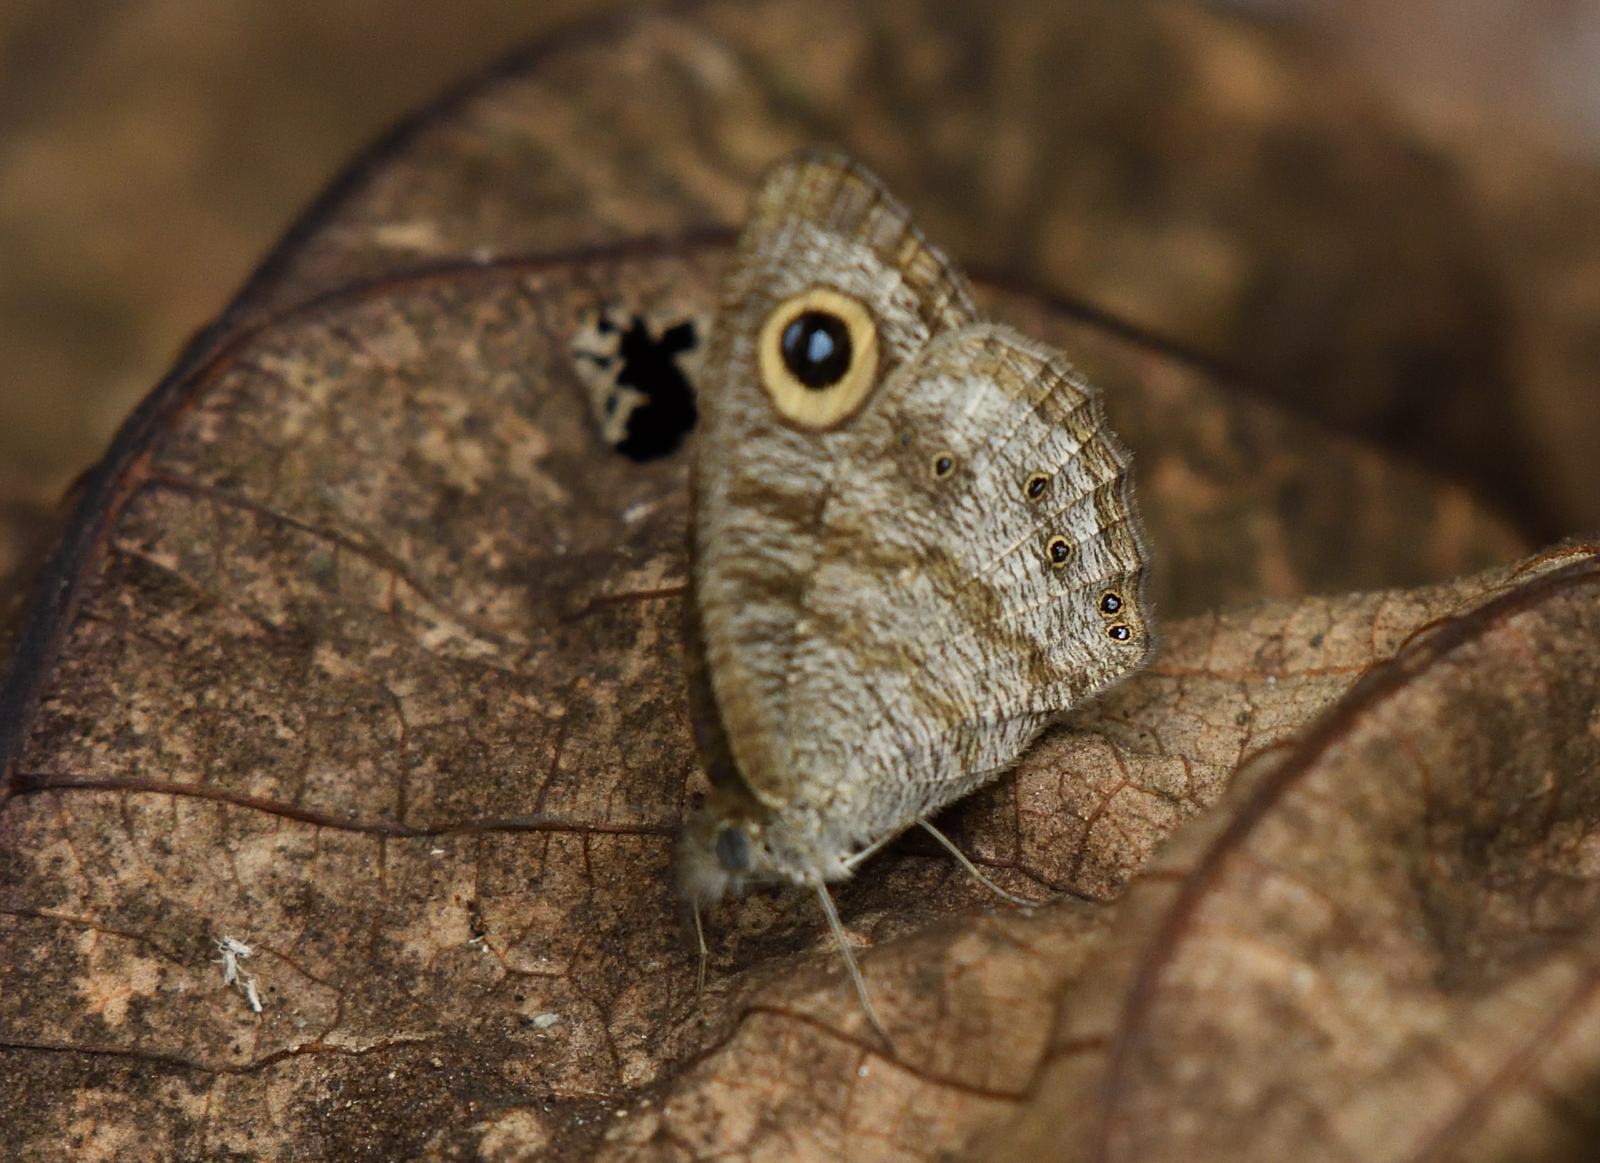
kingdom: Animalia
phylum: Arthropoda
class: Insecta
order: Lepidoptera
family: Nymphalidae
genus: Ypthima
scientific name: Ypthima baldus
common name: Common five-ring
